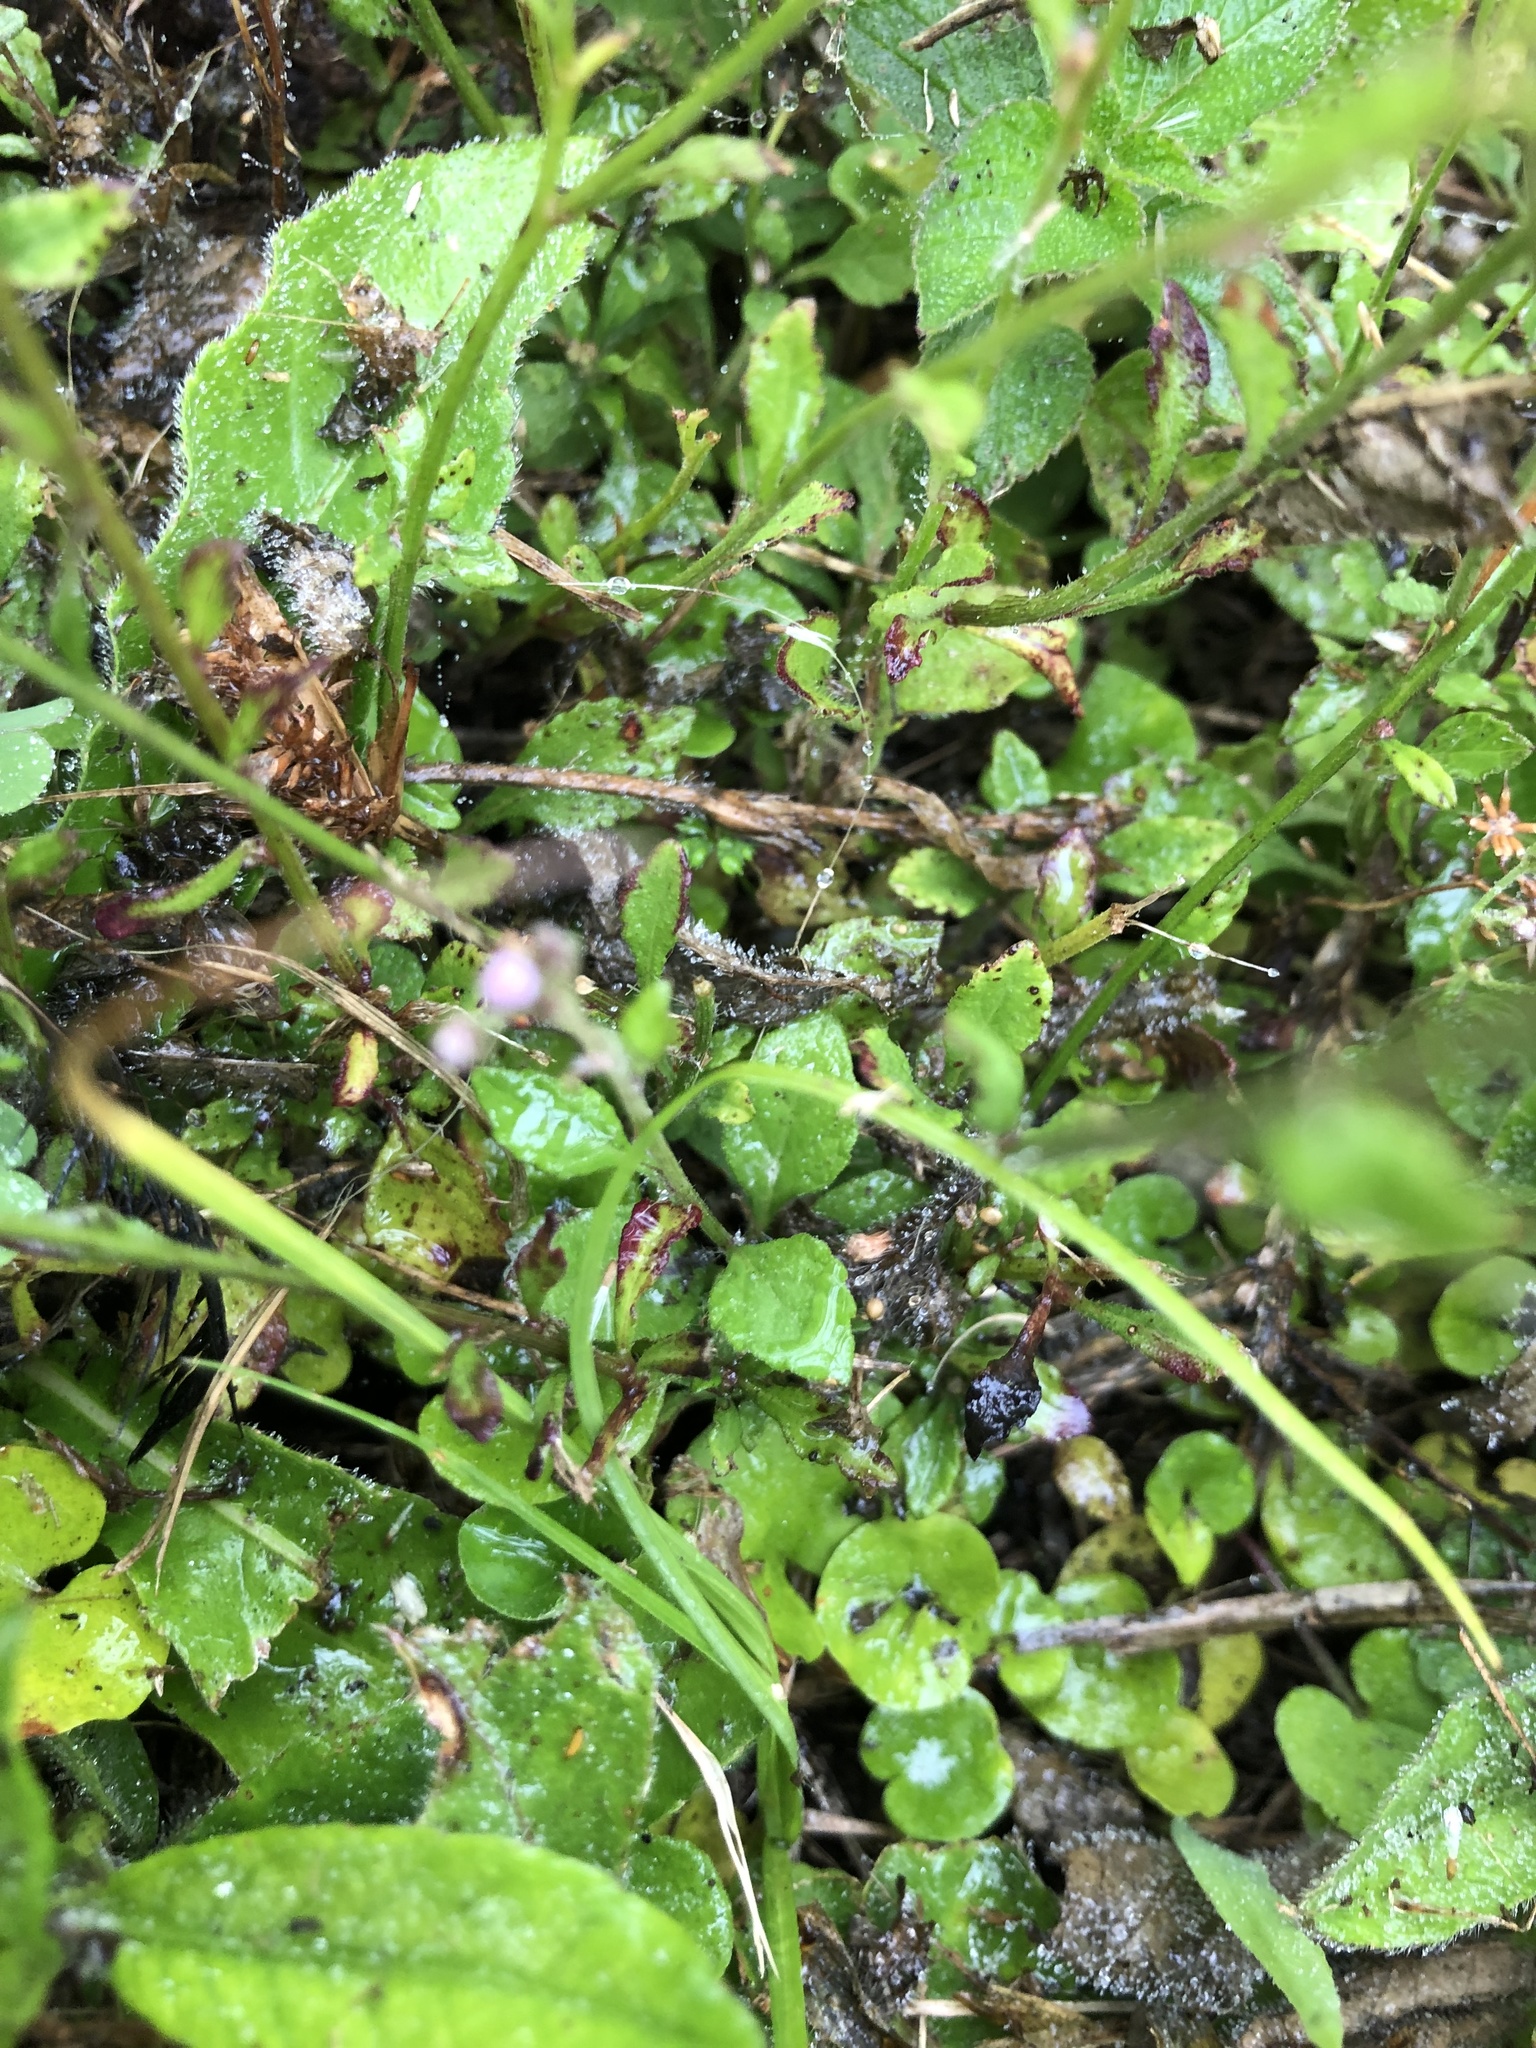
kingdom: Plantae
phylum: Tracheophyta
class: Magnoliopsida
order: Asterales
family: Asteraceae
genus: Cyanthillium
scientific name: Cyanthillium cinereum
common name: Little ironweed
